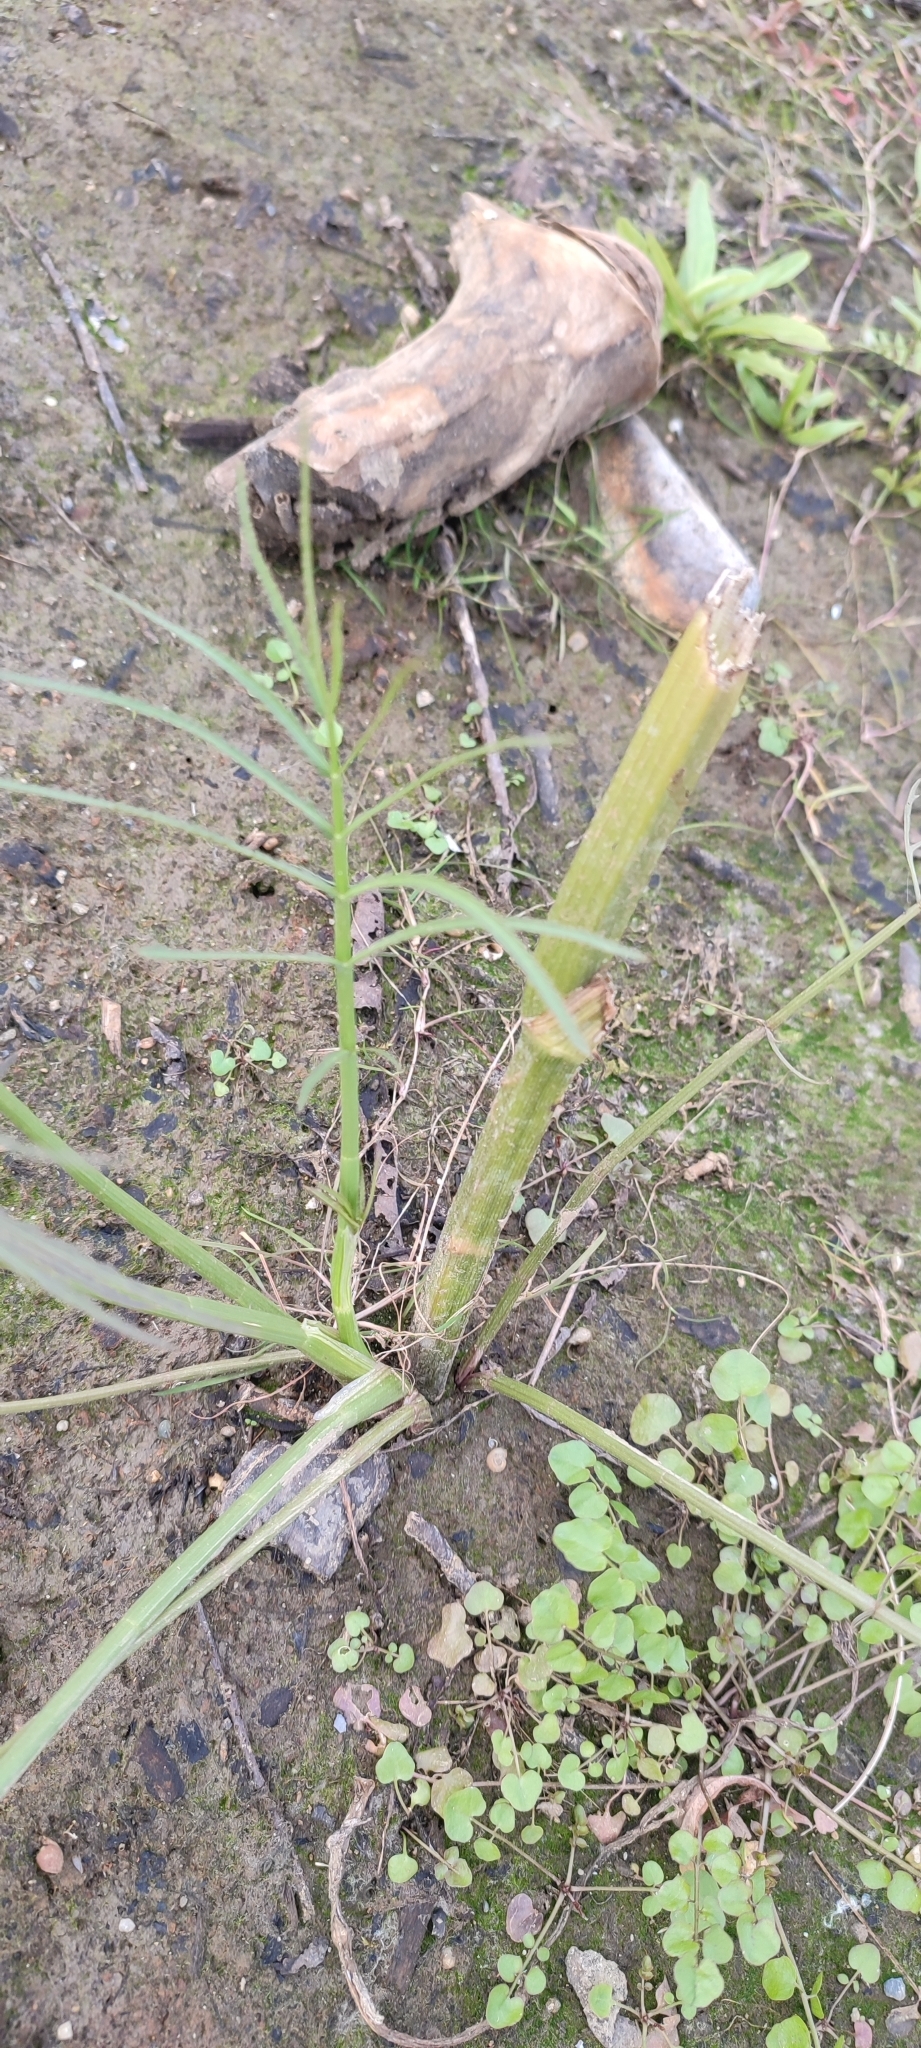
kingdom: Plantae
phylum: Tracheophyta
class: Magnoliopsida
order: Apiales
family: Apiaceae
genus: Sium
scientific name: Sium latifolium
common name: Greater water-parsnip
